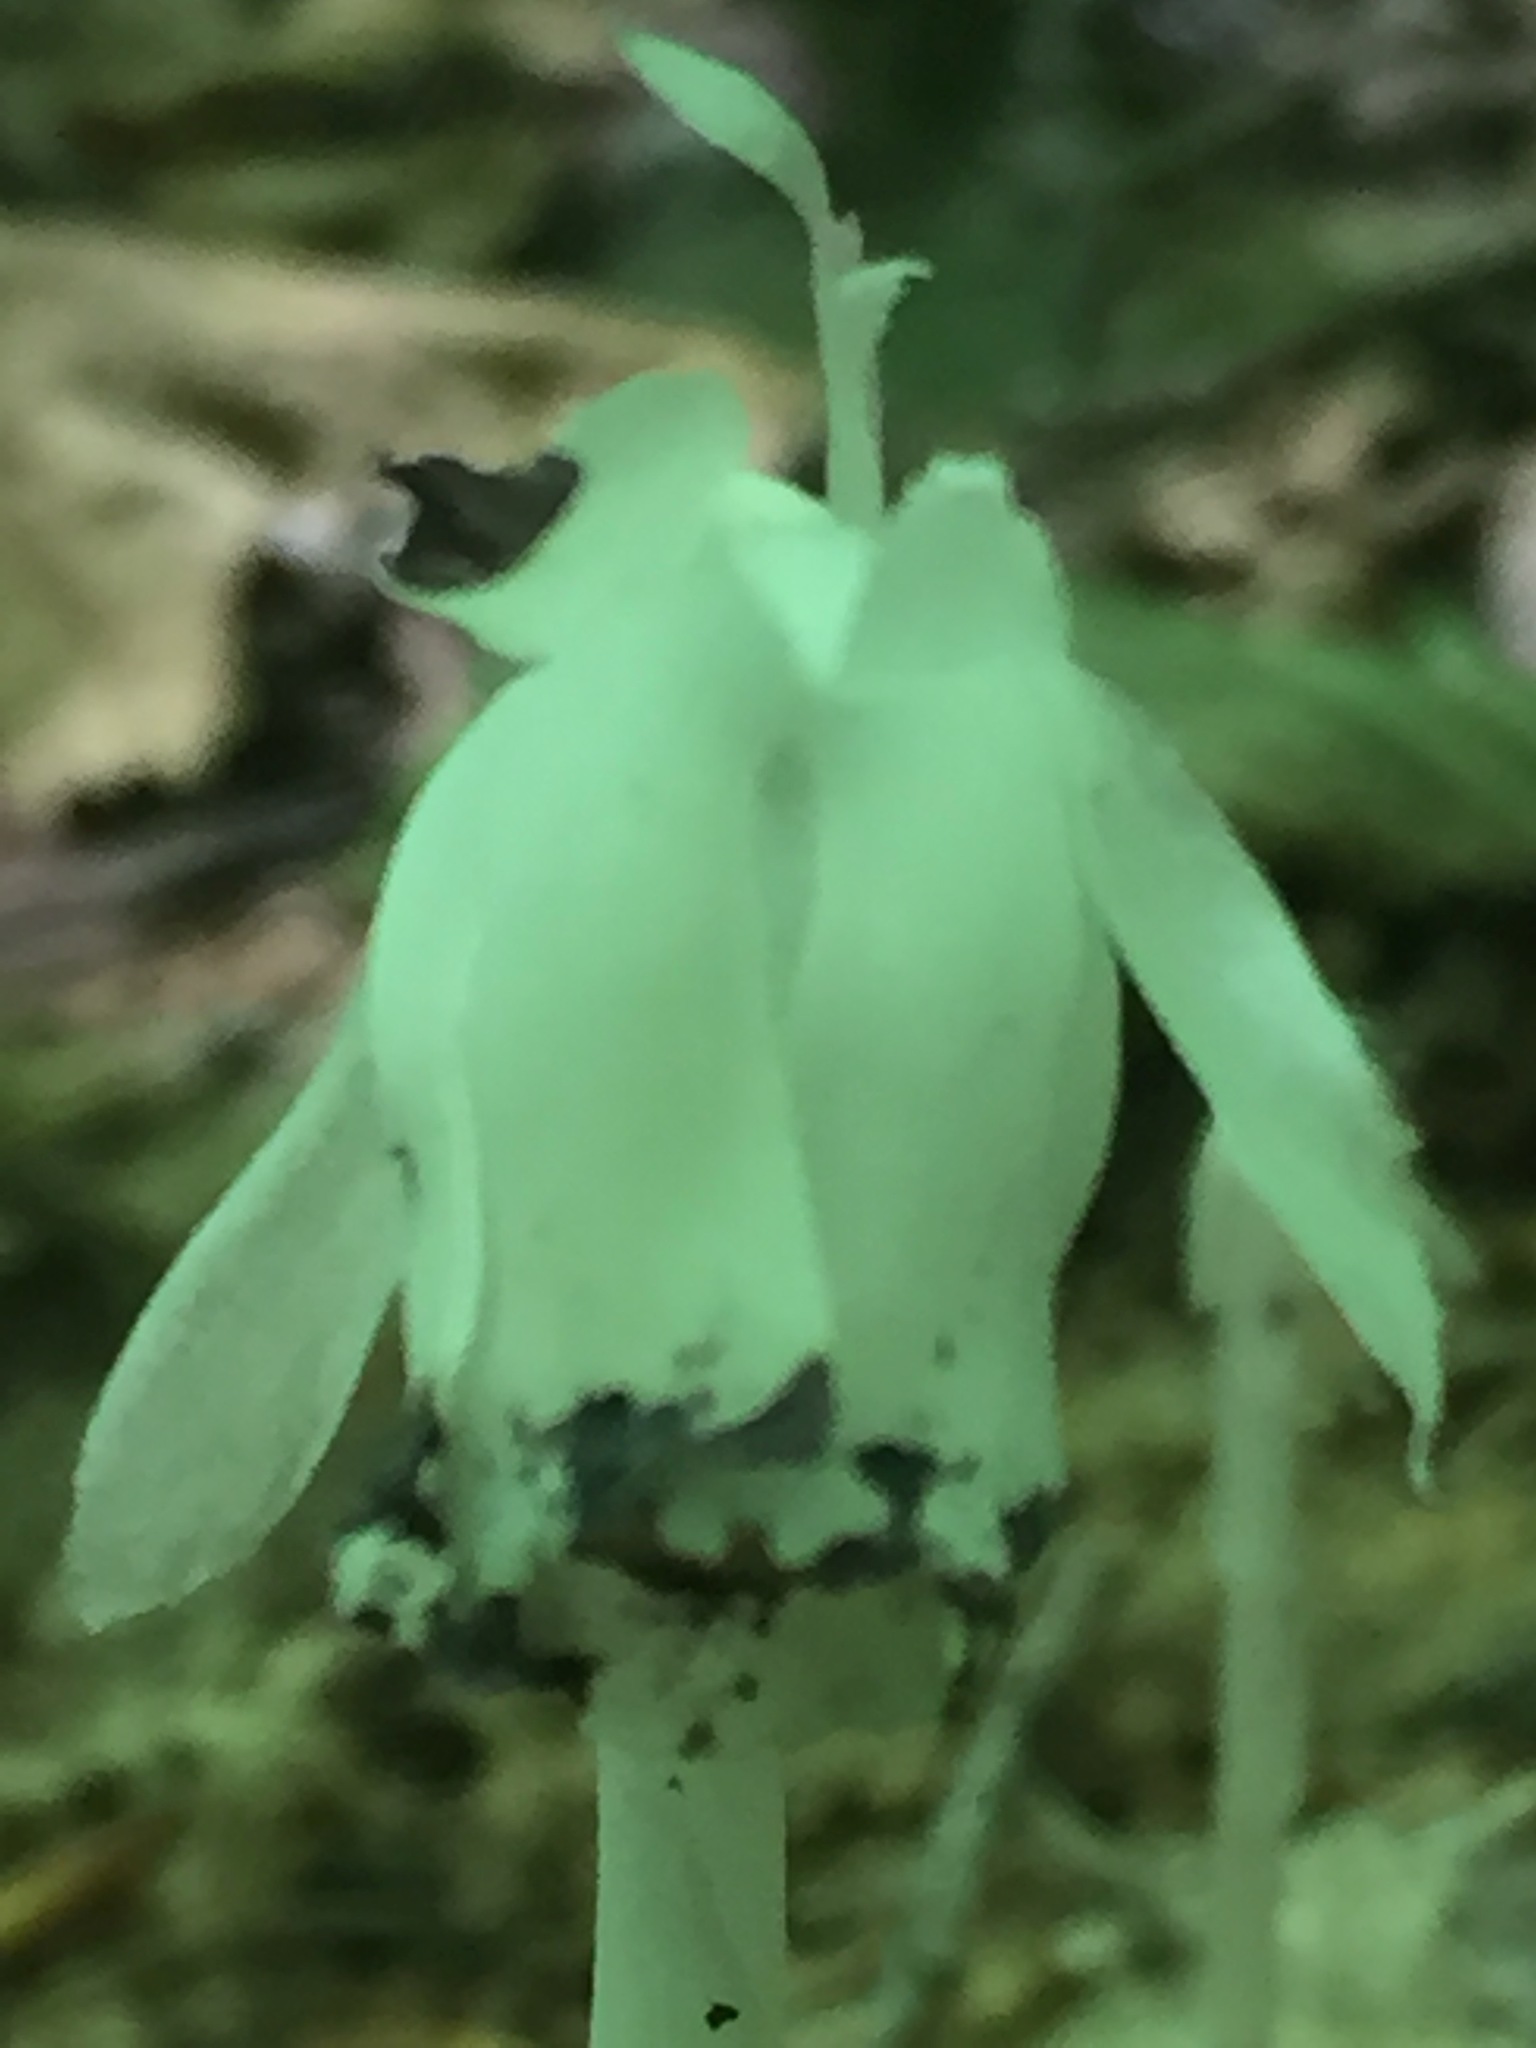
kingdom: Plantae
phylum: Tracheophyta
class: Magnoliopsida
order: Ericales
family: Ericaceae
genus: Monotropa
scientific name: Monotropa uniflora
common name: Convulsion root
